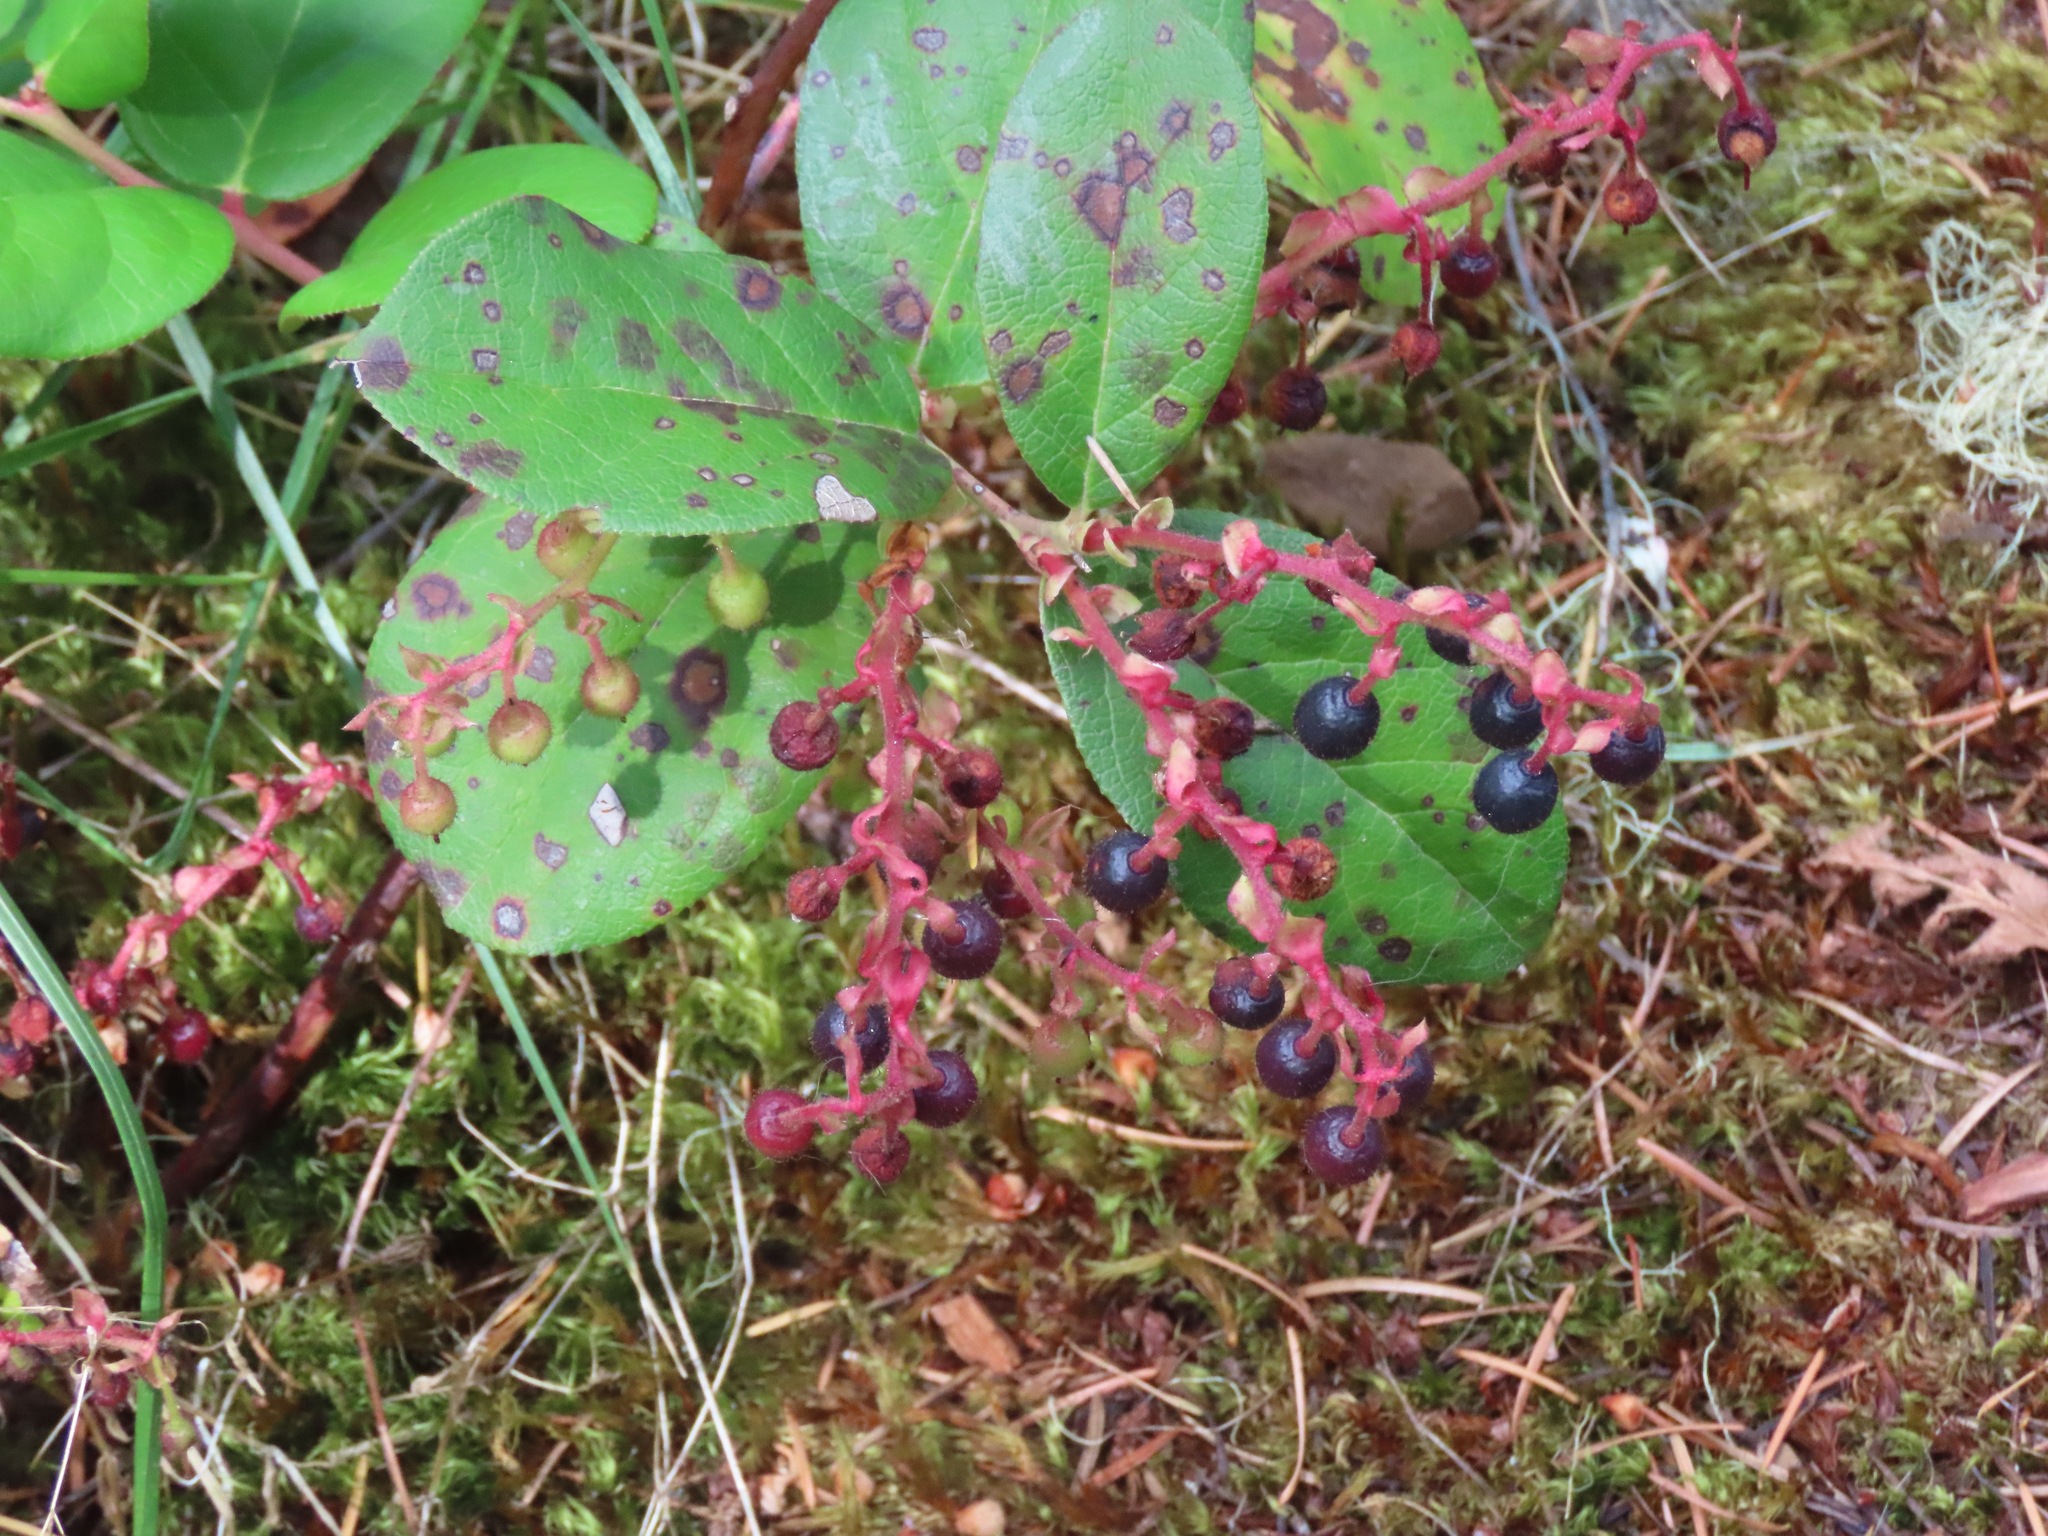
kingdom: Plantae
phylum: Tracheophyta
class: Magnoliopsida
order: Ericales
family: Ericaceae
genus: Gaultheria
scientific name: Gaultheria shallon
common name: Shallon
